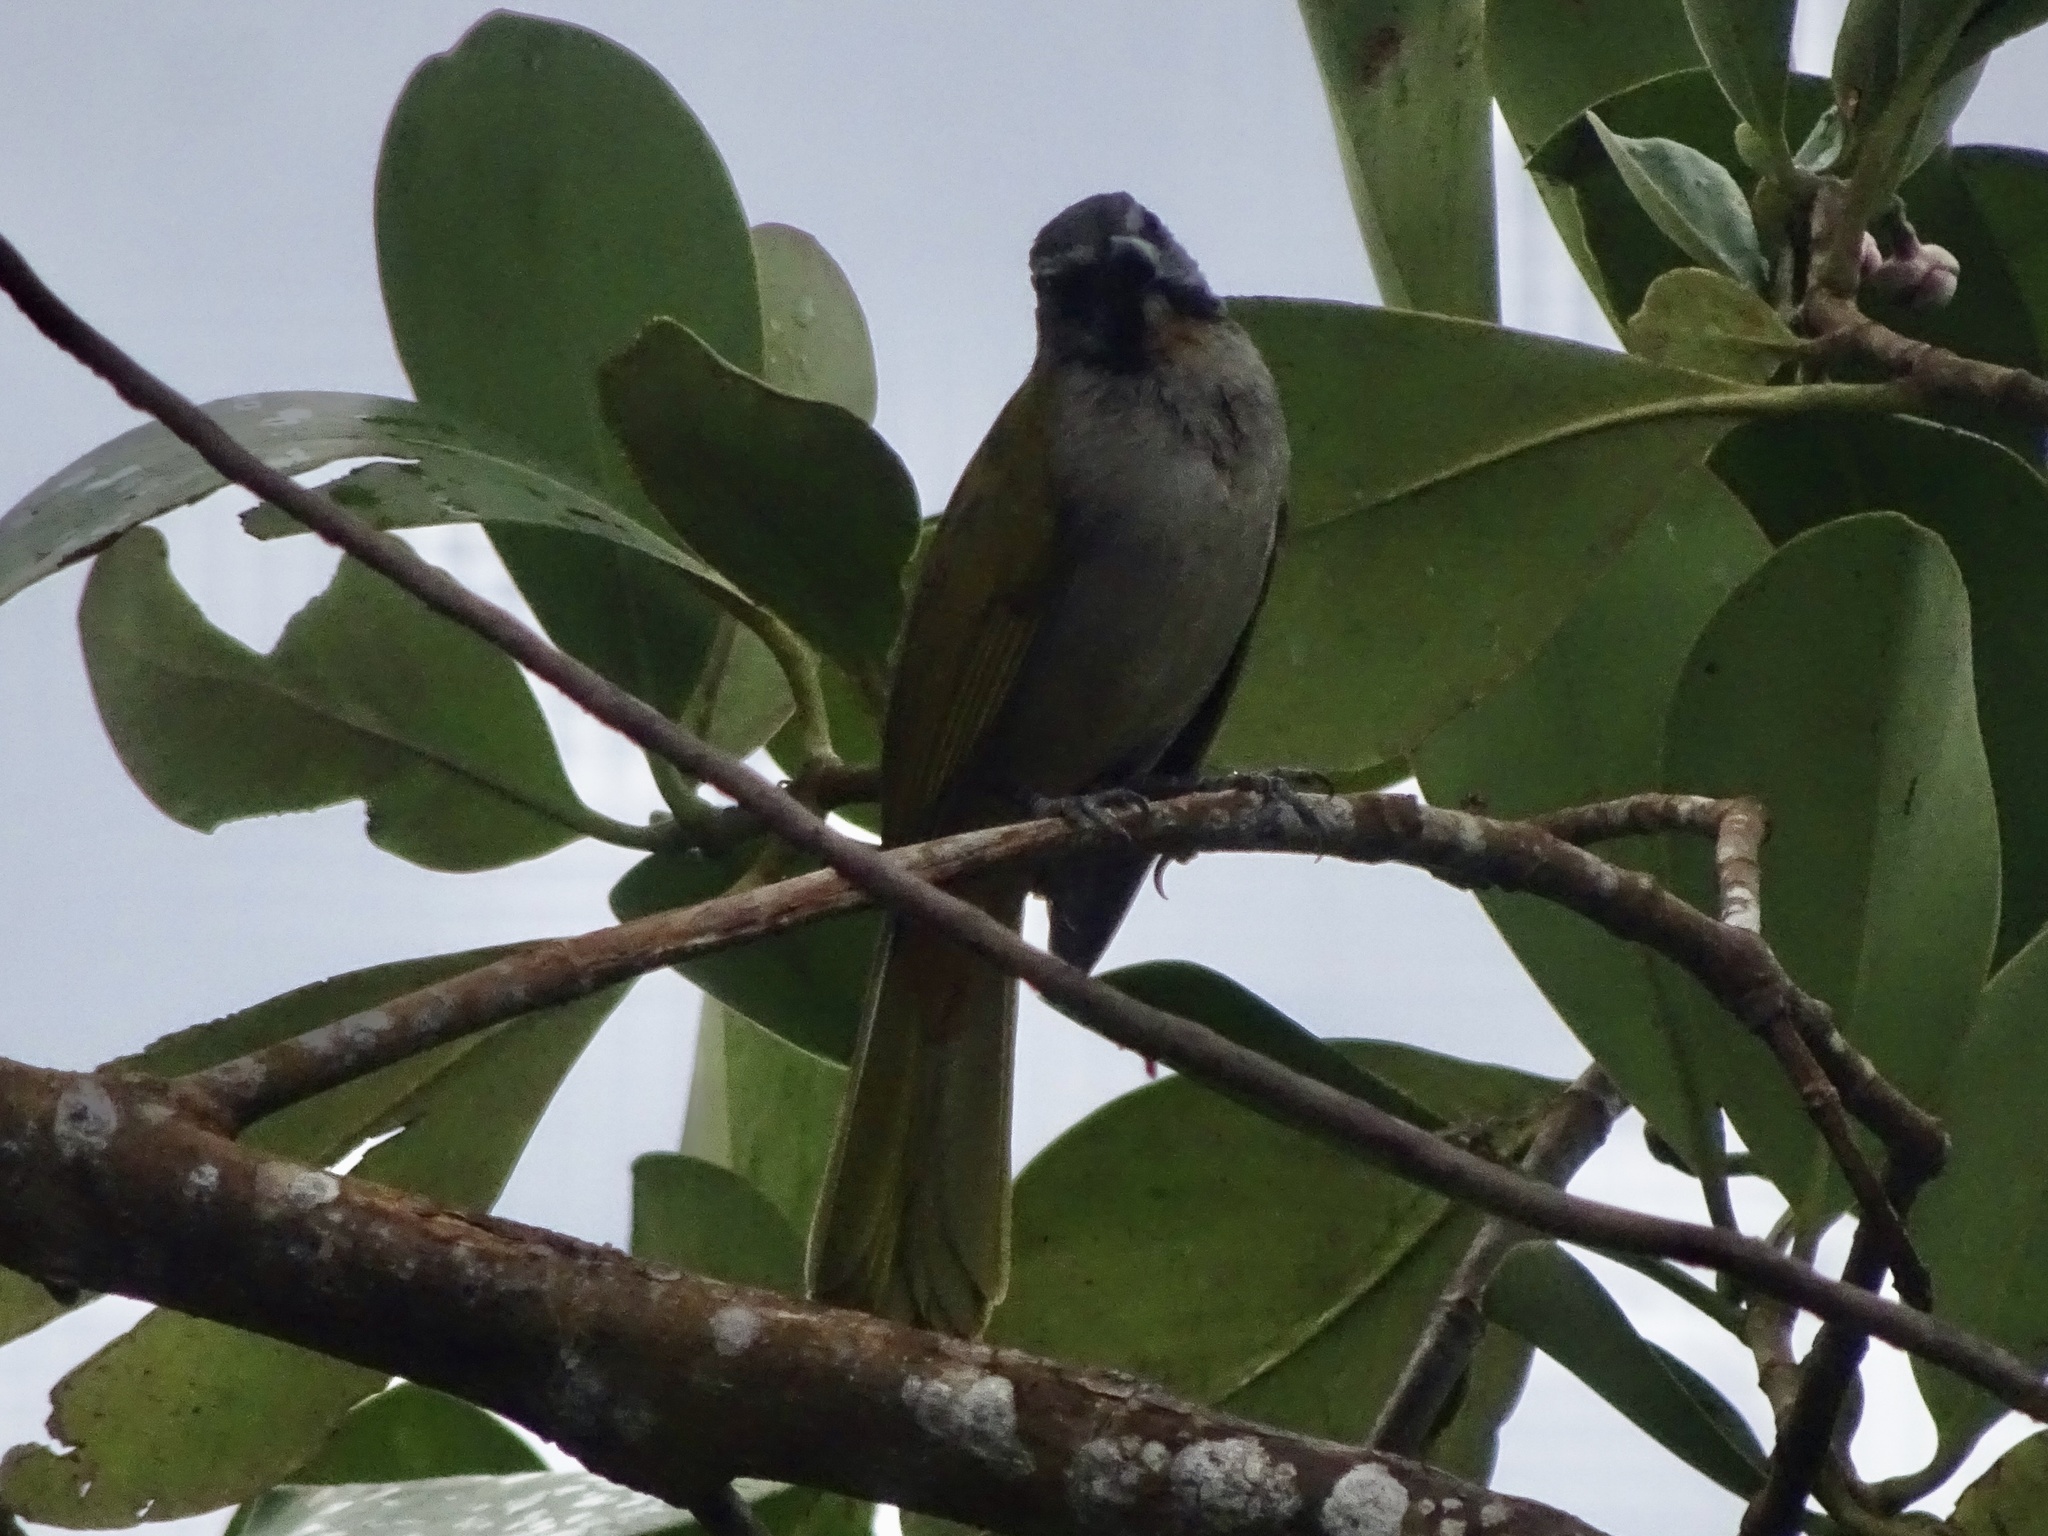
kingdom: Animalia
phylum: Chordata
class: Aves
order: Passeriformes
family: Thraupidae
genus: Saltator
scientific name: Saltator maximus
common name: Buff-throated saltator
